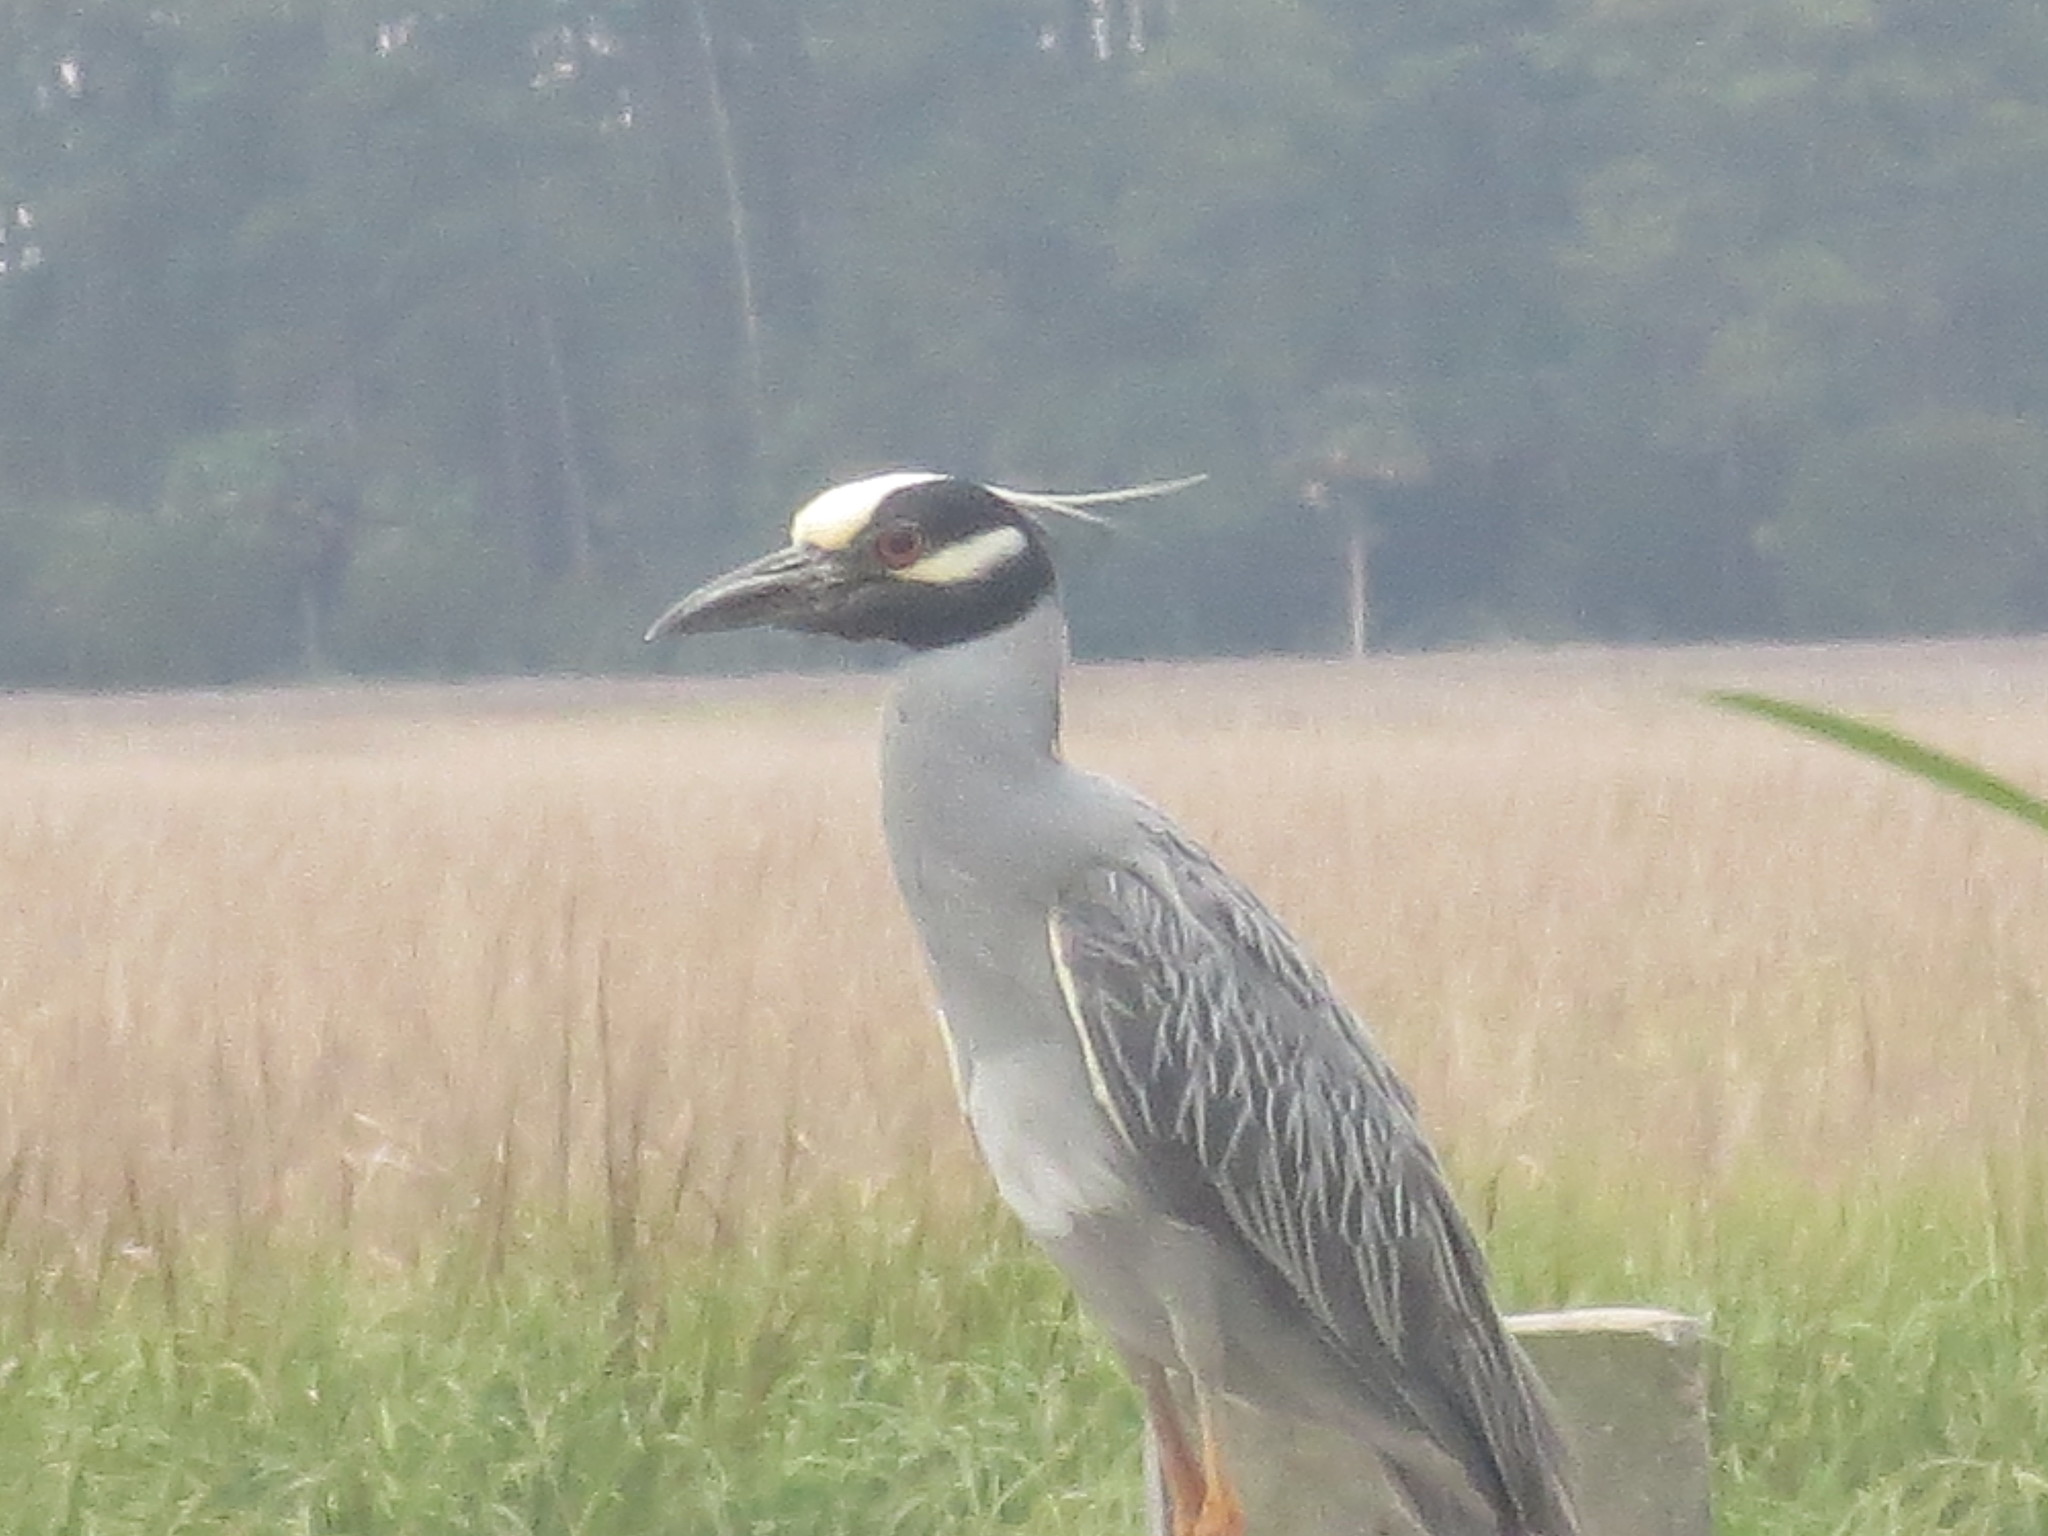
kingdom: Animalia
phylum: Chordata
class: Aves
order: Pelecaniformes
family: Ardeidae
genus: Nyctanassa
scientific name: Nyctanassa violacea
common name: Yellow-crowned night heron
